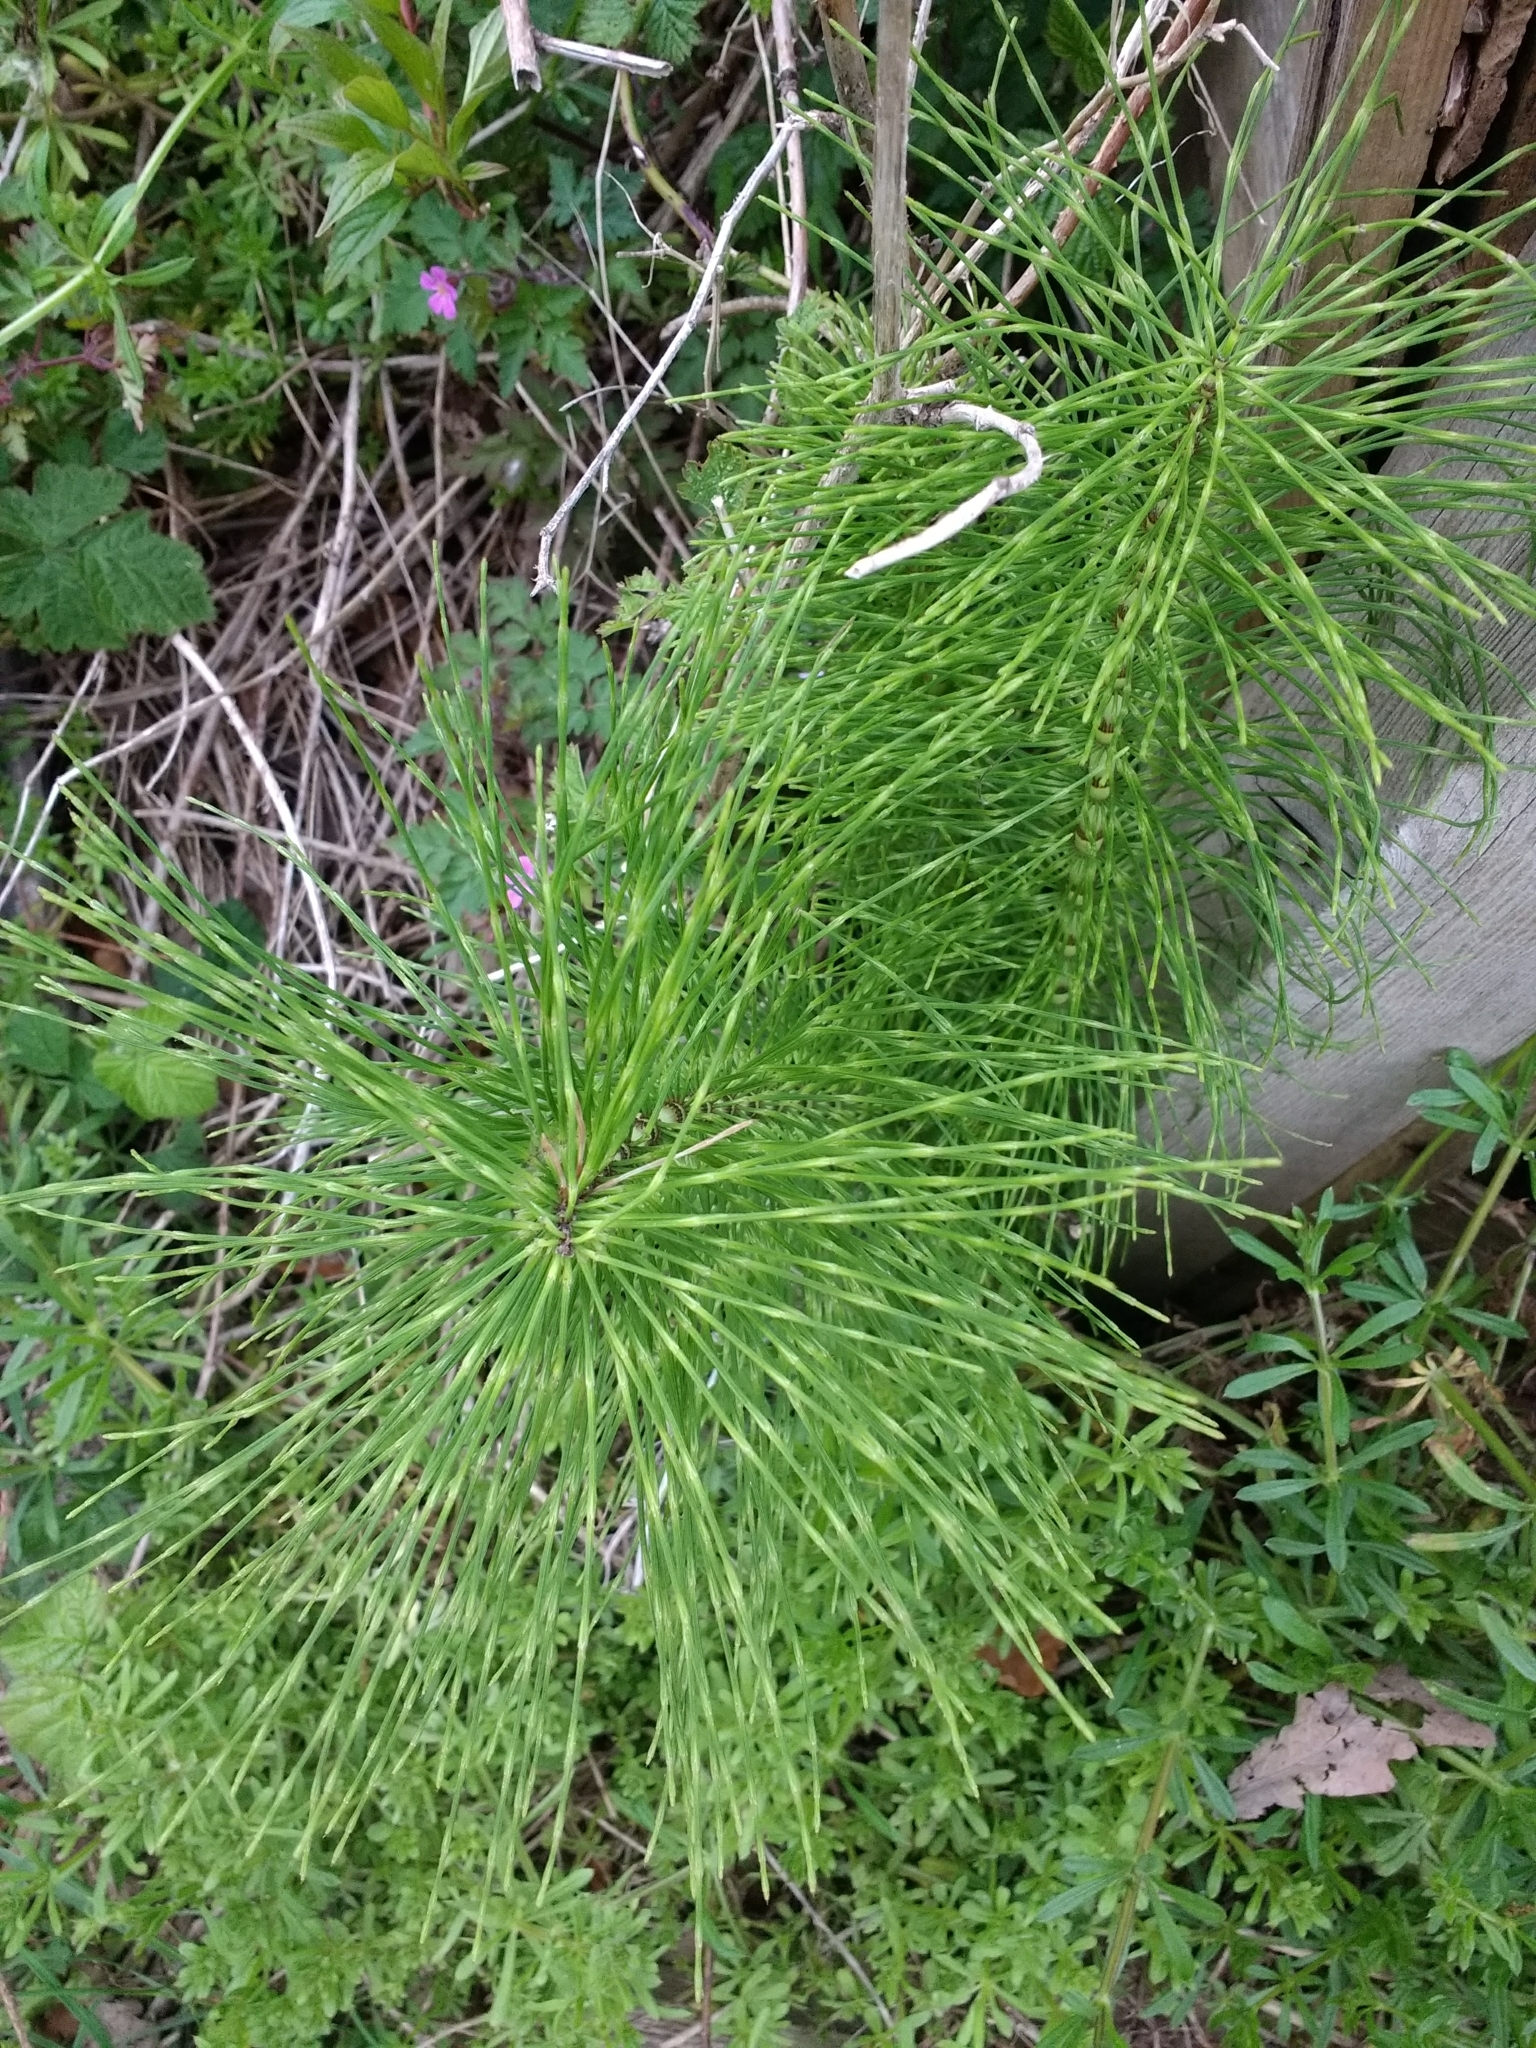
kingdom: Plantae
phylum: Tracheophyta
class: Polypodiopsida
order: Equisetales
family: Equisetaceae
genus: Equisetum
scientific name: Equisetum telmateia
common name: Great horsetail
